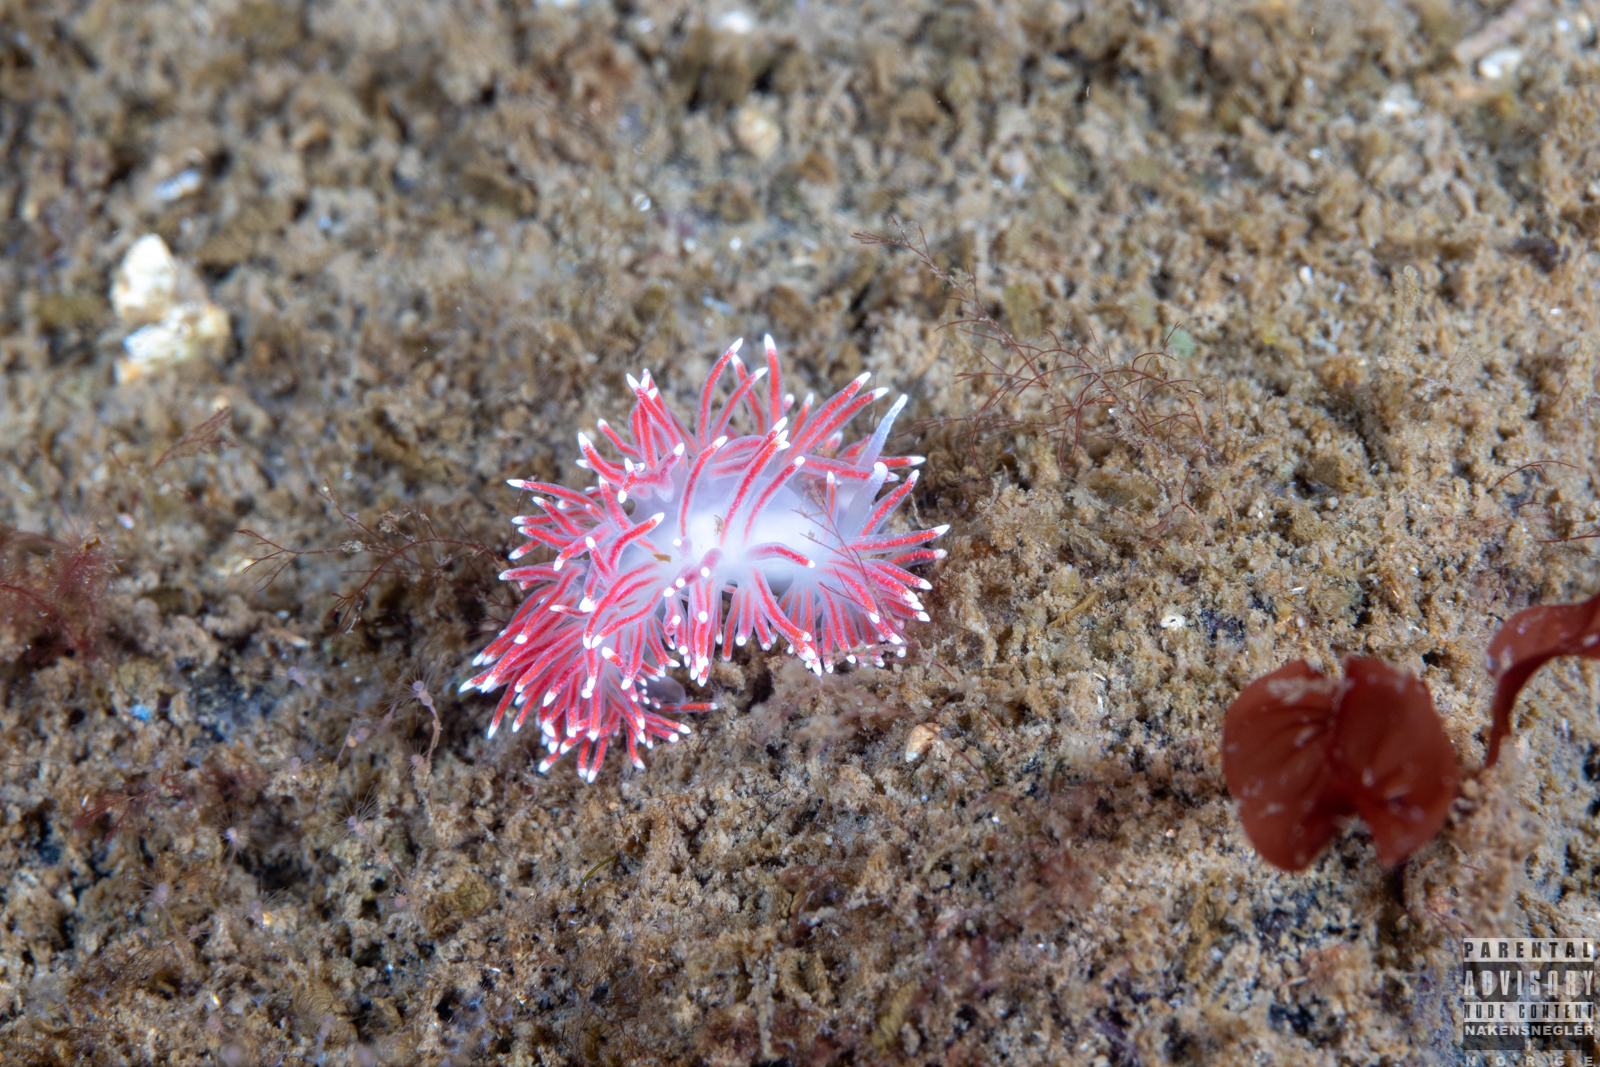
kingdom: Animalia
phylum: Mollusca
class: Gastropoda
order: Nudibranchia
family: Flabellinidae
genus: Carronella
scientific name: Carronella pellucida
